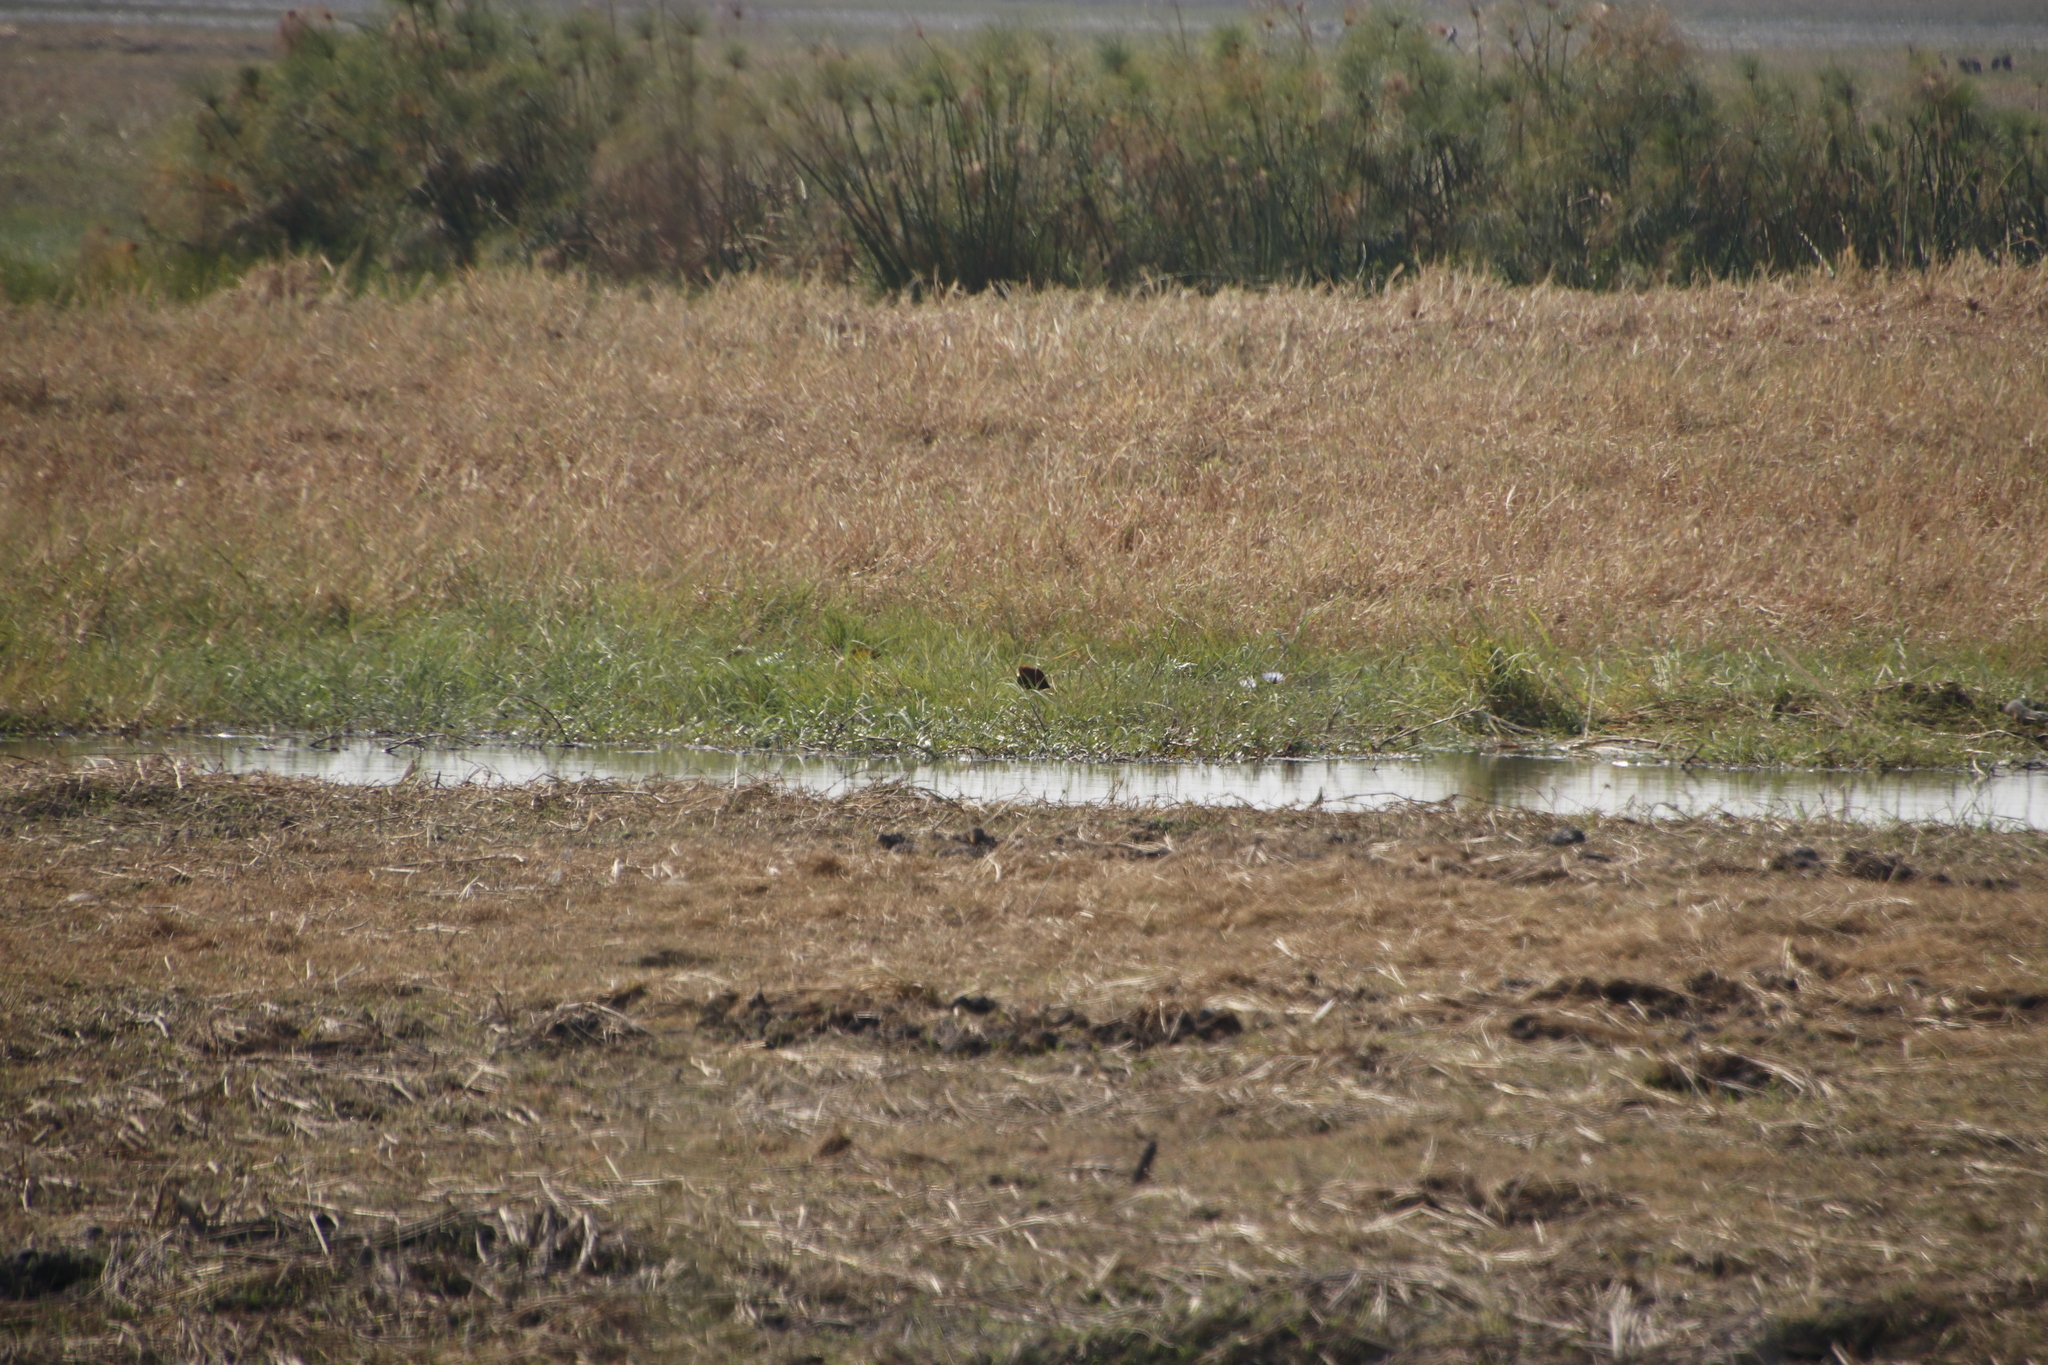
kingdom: Plantae
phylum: Tracheophyta
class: Liliopsida
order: Poales
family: Cyperaceae
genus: Cyperus
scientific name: Cyperus papyrus
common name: Papyrus
